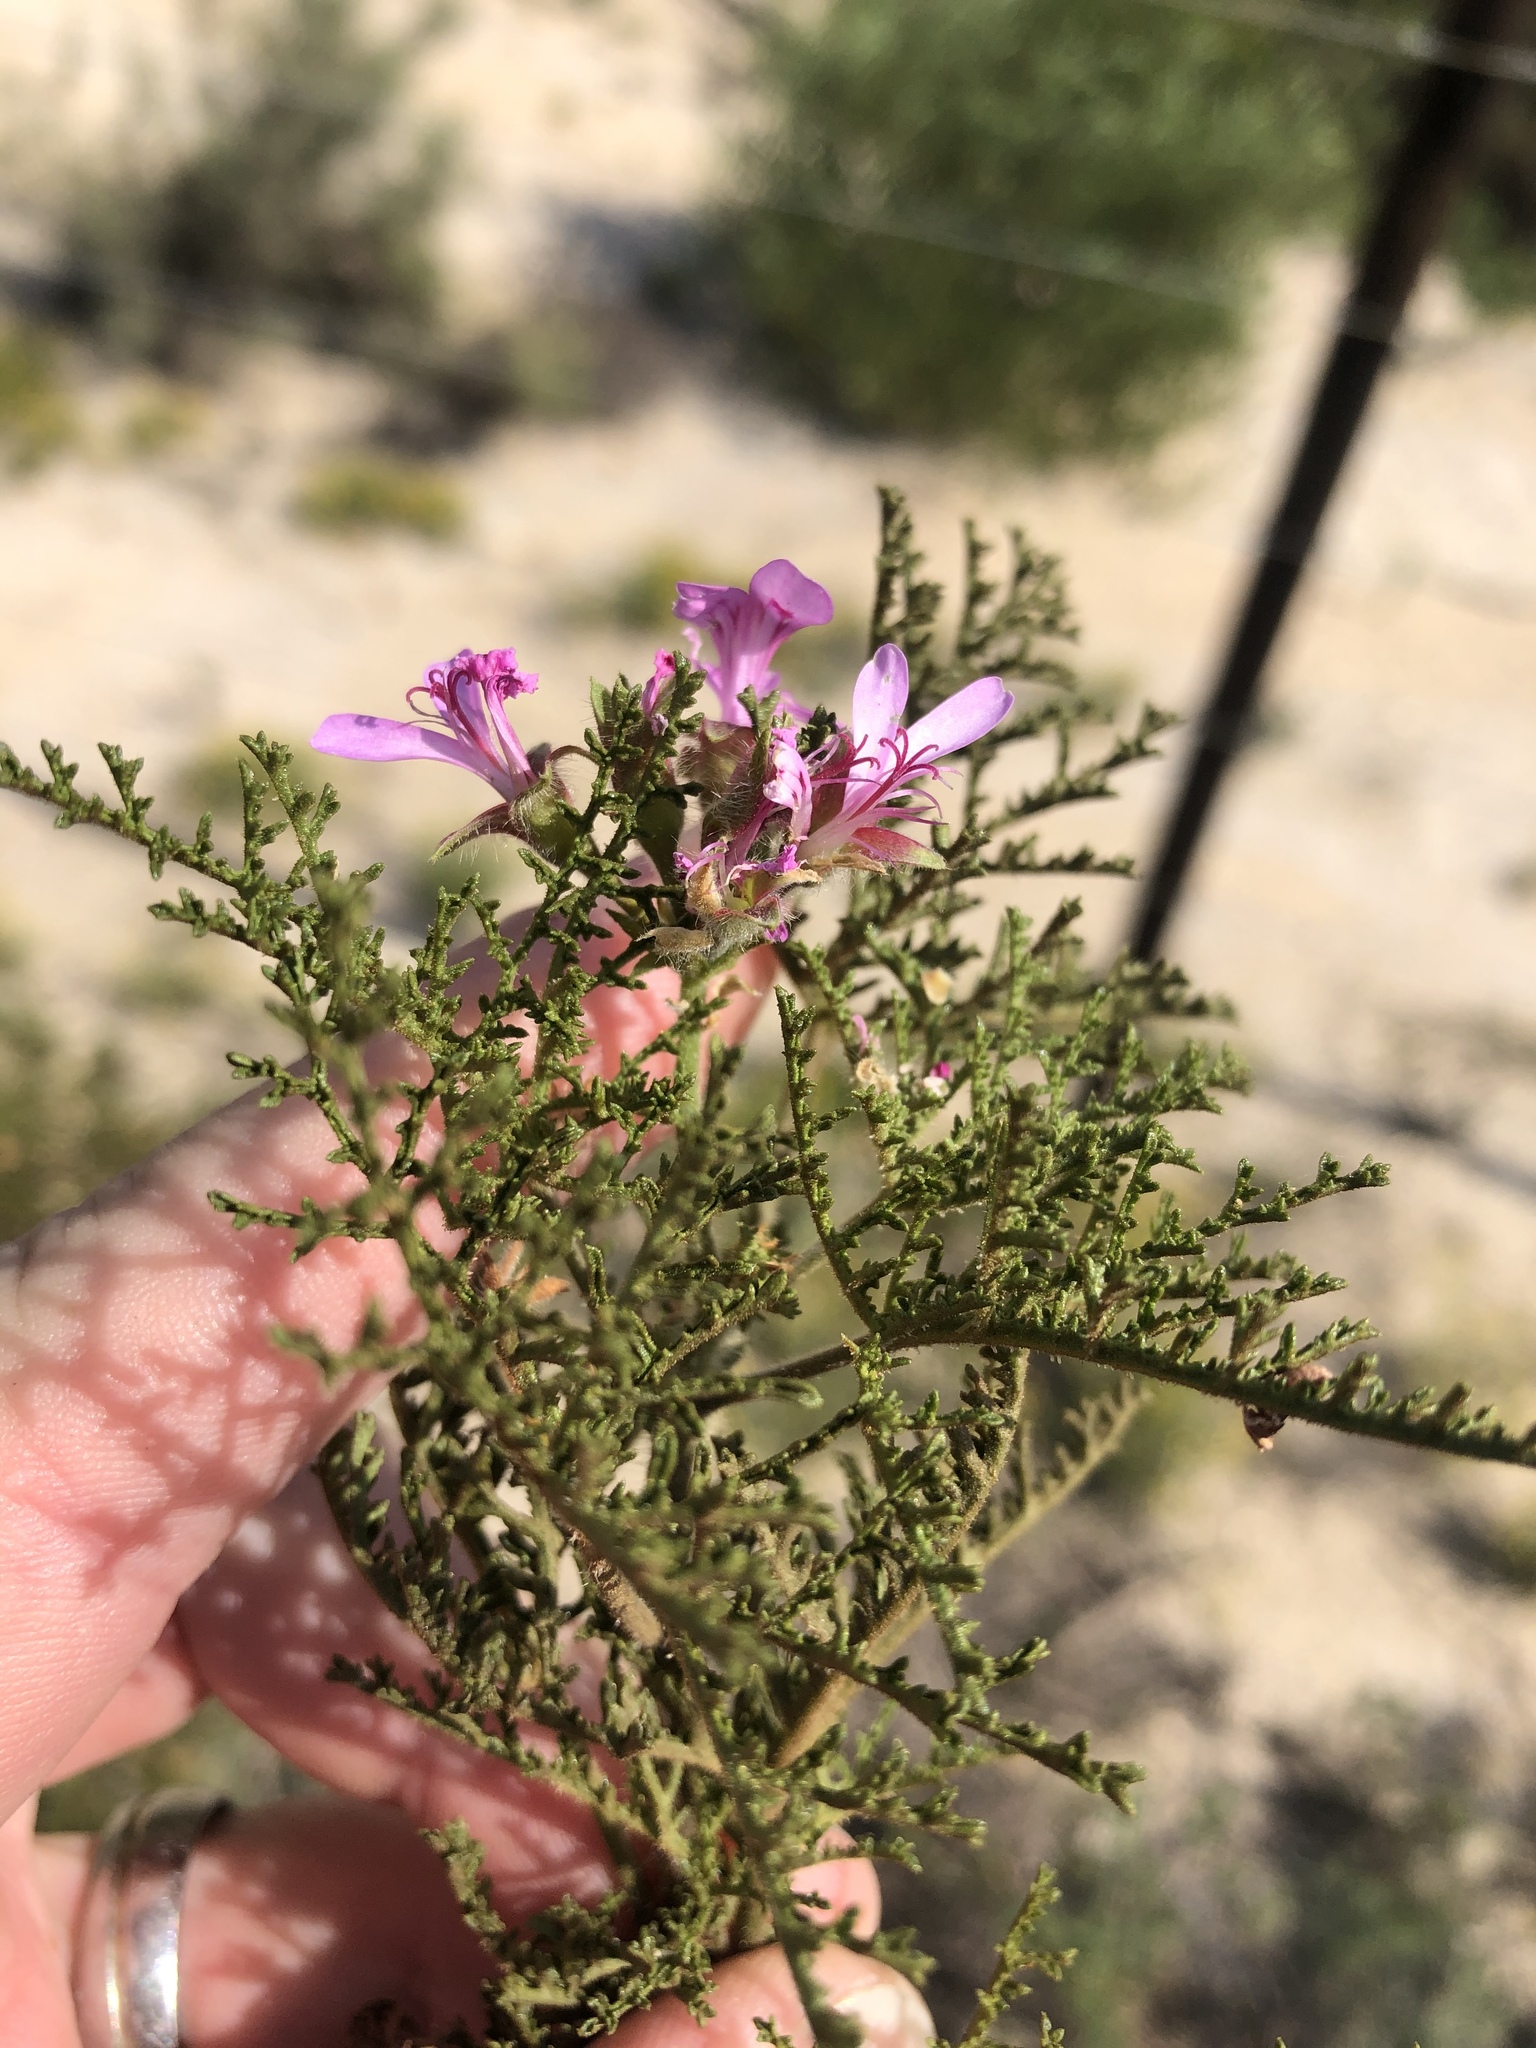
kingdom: Plantae
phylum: Tracheophyta
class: Magnoliopsida
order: Geraniales
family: Geraniaceae
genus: Pelargonium
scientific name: Pelargonium denticulatum
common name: Pine geranium
